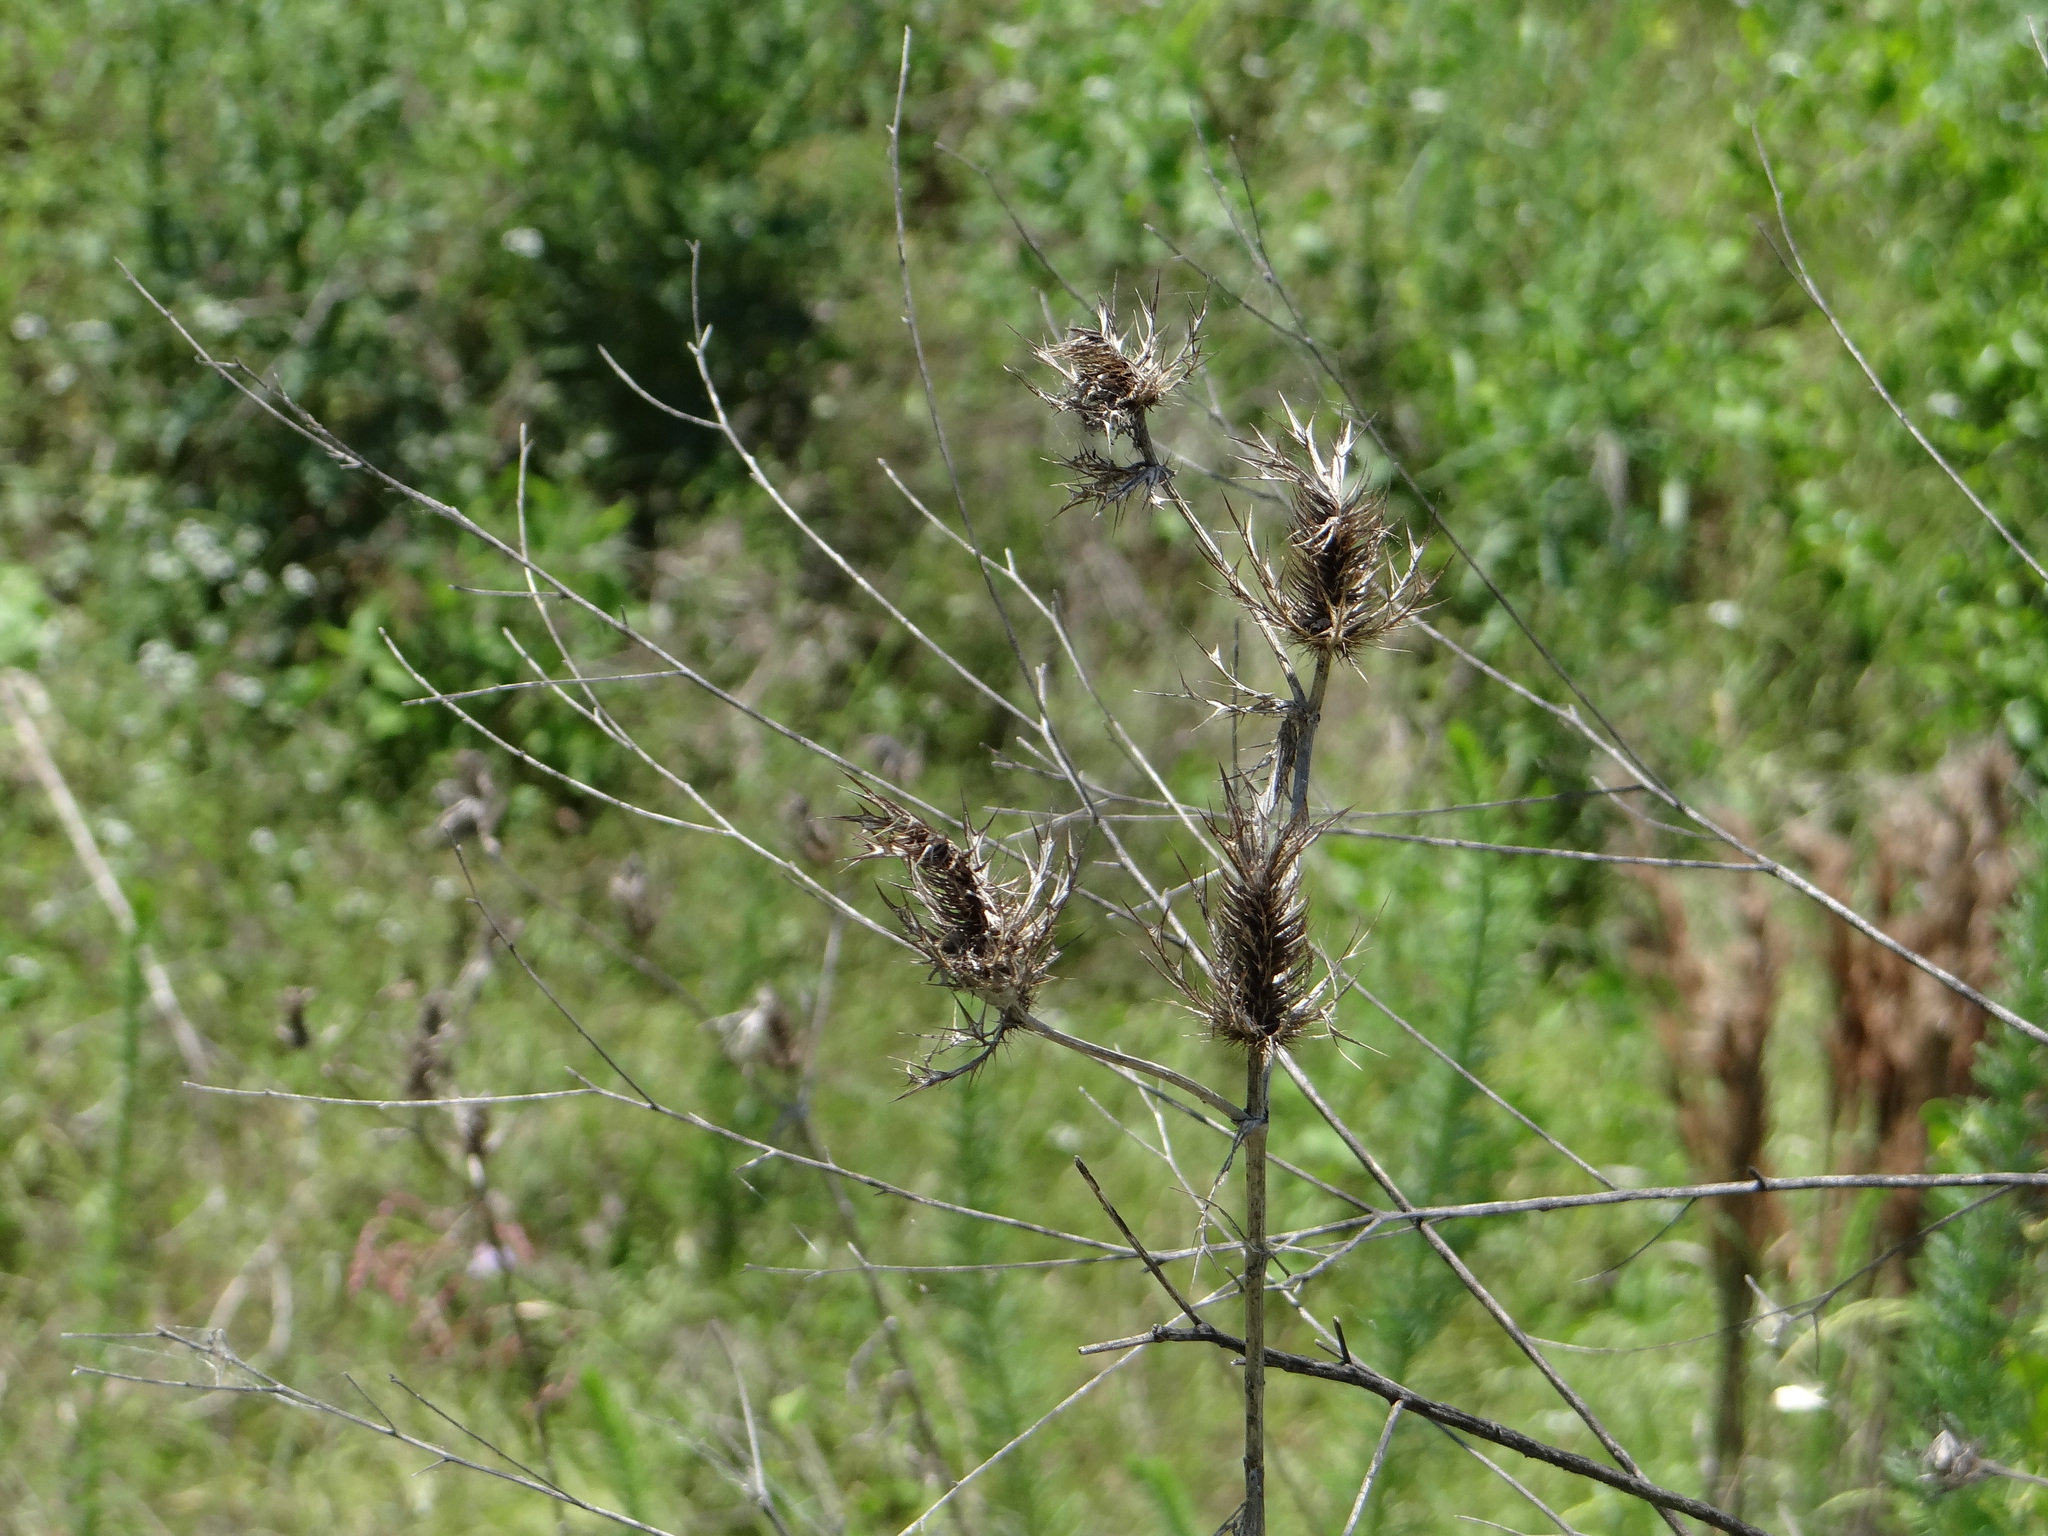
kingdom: Plantae
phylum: Tracheophyta
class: Magnoliopsida
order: Apiales
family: Apiaceae
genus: Eryngium
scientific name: Eryngium leavenworthii
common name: Leavenworth's eryngo
